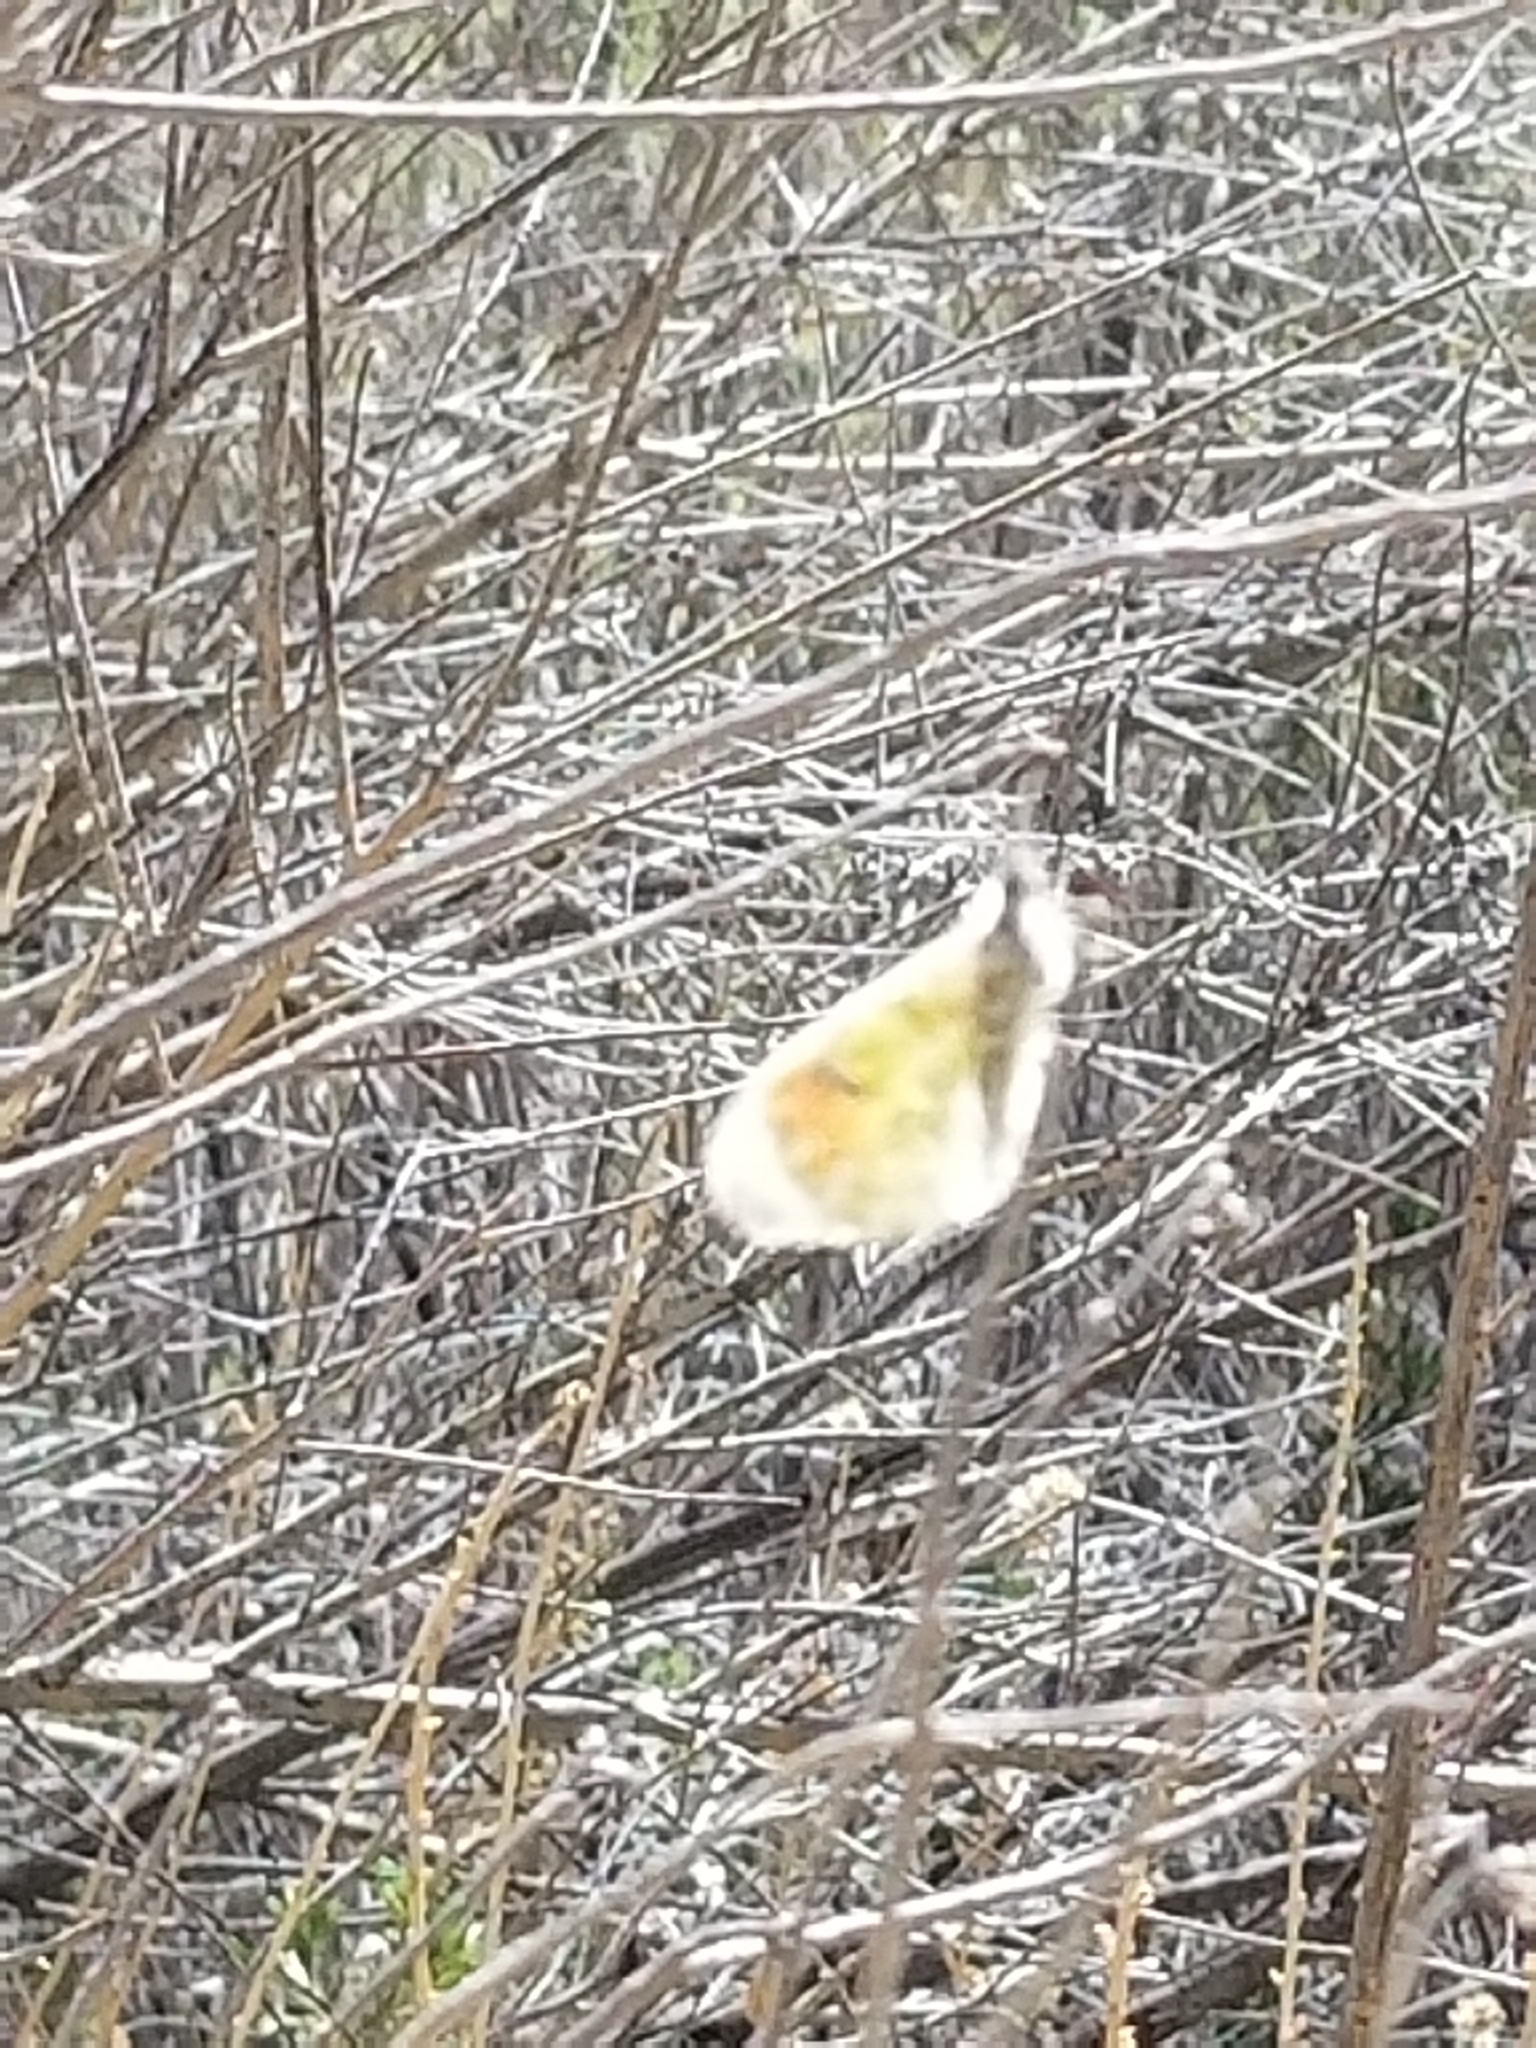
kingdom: Animalia
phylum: Arthropoda
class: Insecta
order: Lepidoptera
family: Pieridae
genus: Anthocharis
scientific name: Anthocharis sara
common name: Sara's orangetip
